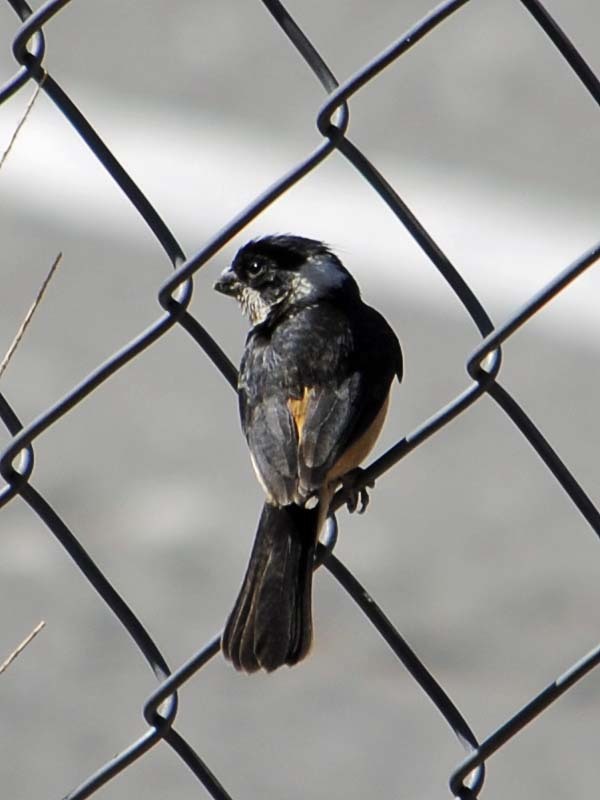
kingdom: Animalia
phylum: Chordata
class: Aves
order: Passeriformes
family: Thraupidae
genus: Sporophila
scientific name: Sporophila torqueola
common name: White-collared seedeater
